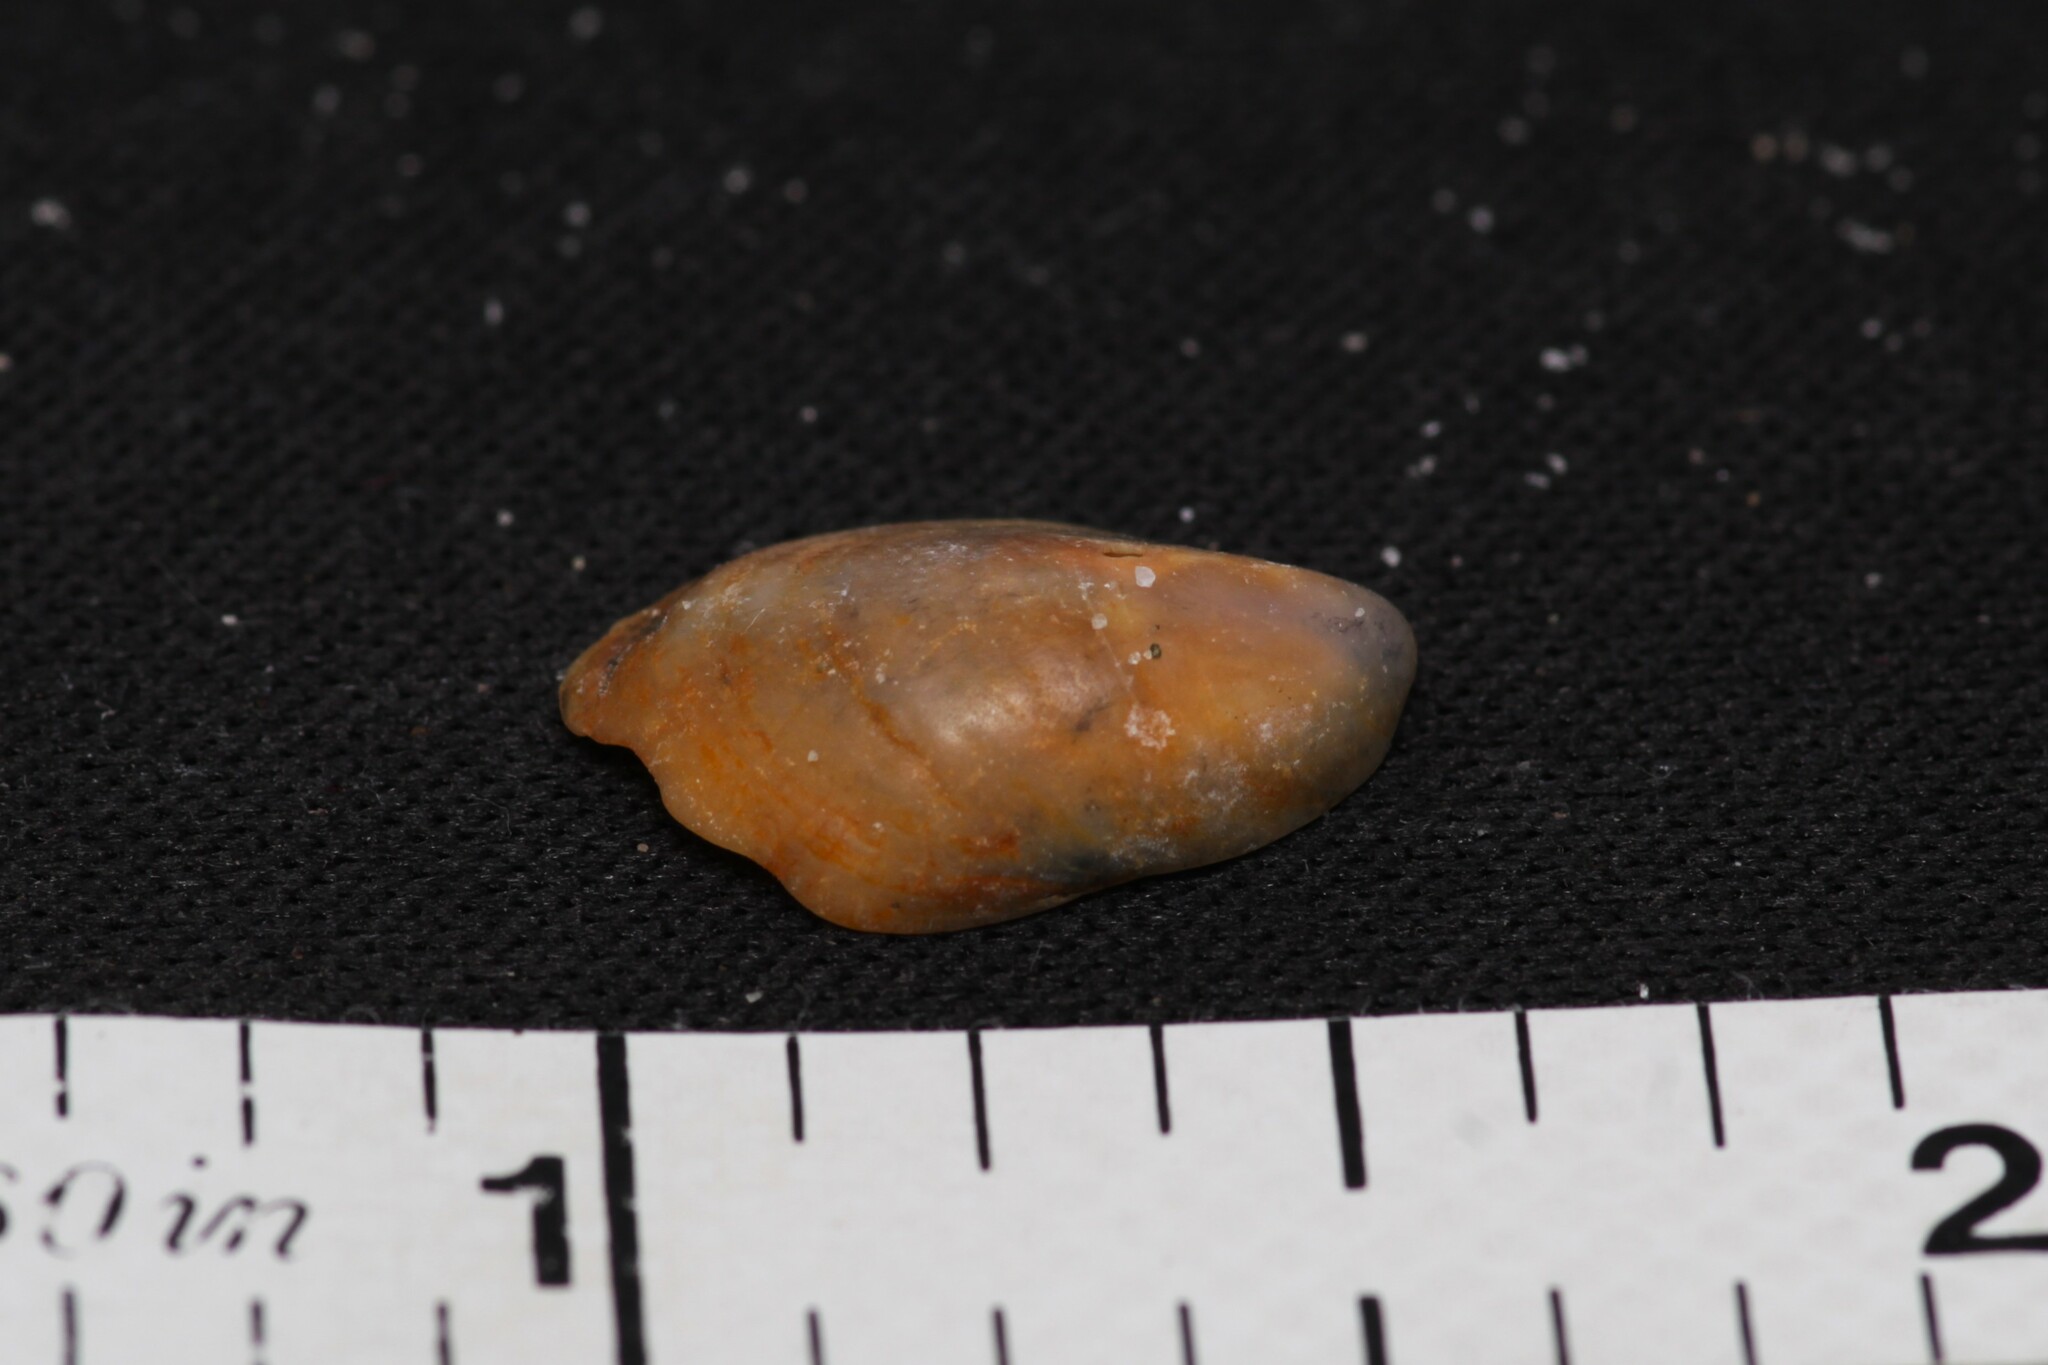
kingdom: Animalia
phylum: Mollusca
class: Gastropoda
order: Littorinimorpha
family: Calyptraeidae
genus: Crepidula
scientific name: Crepidula fornicata
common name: Slipper limpet
